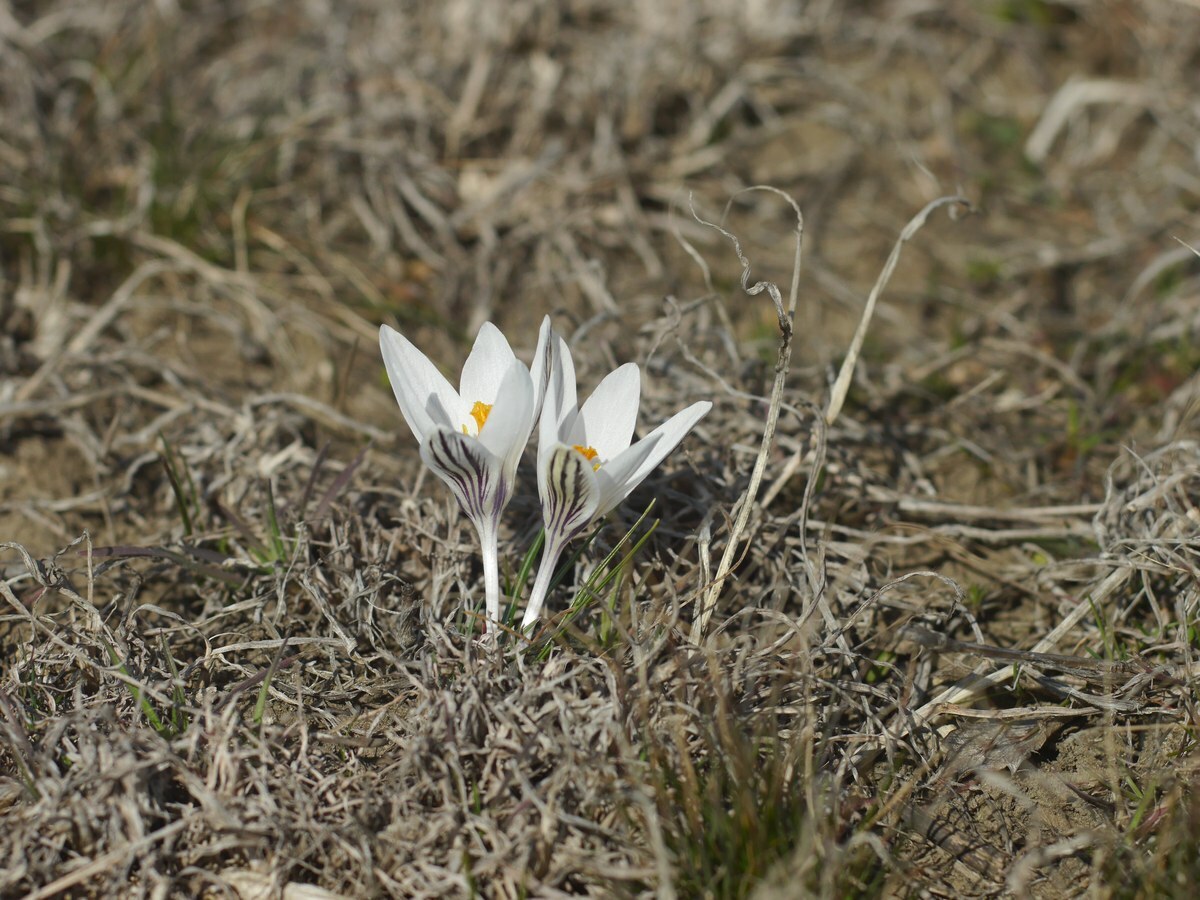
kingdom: Plantae
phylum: Tracheophyta
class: Liliopsida
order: Asparagales
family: Iridaceae
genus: Crocus
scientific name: Crocus reticulatus
